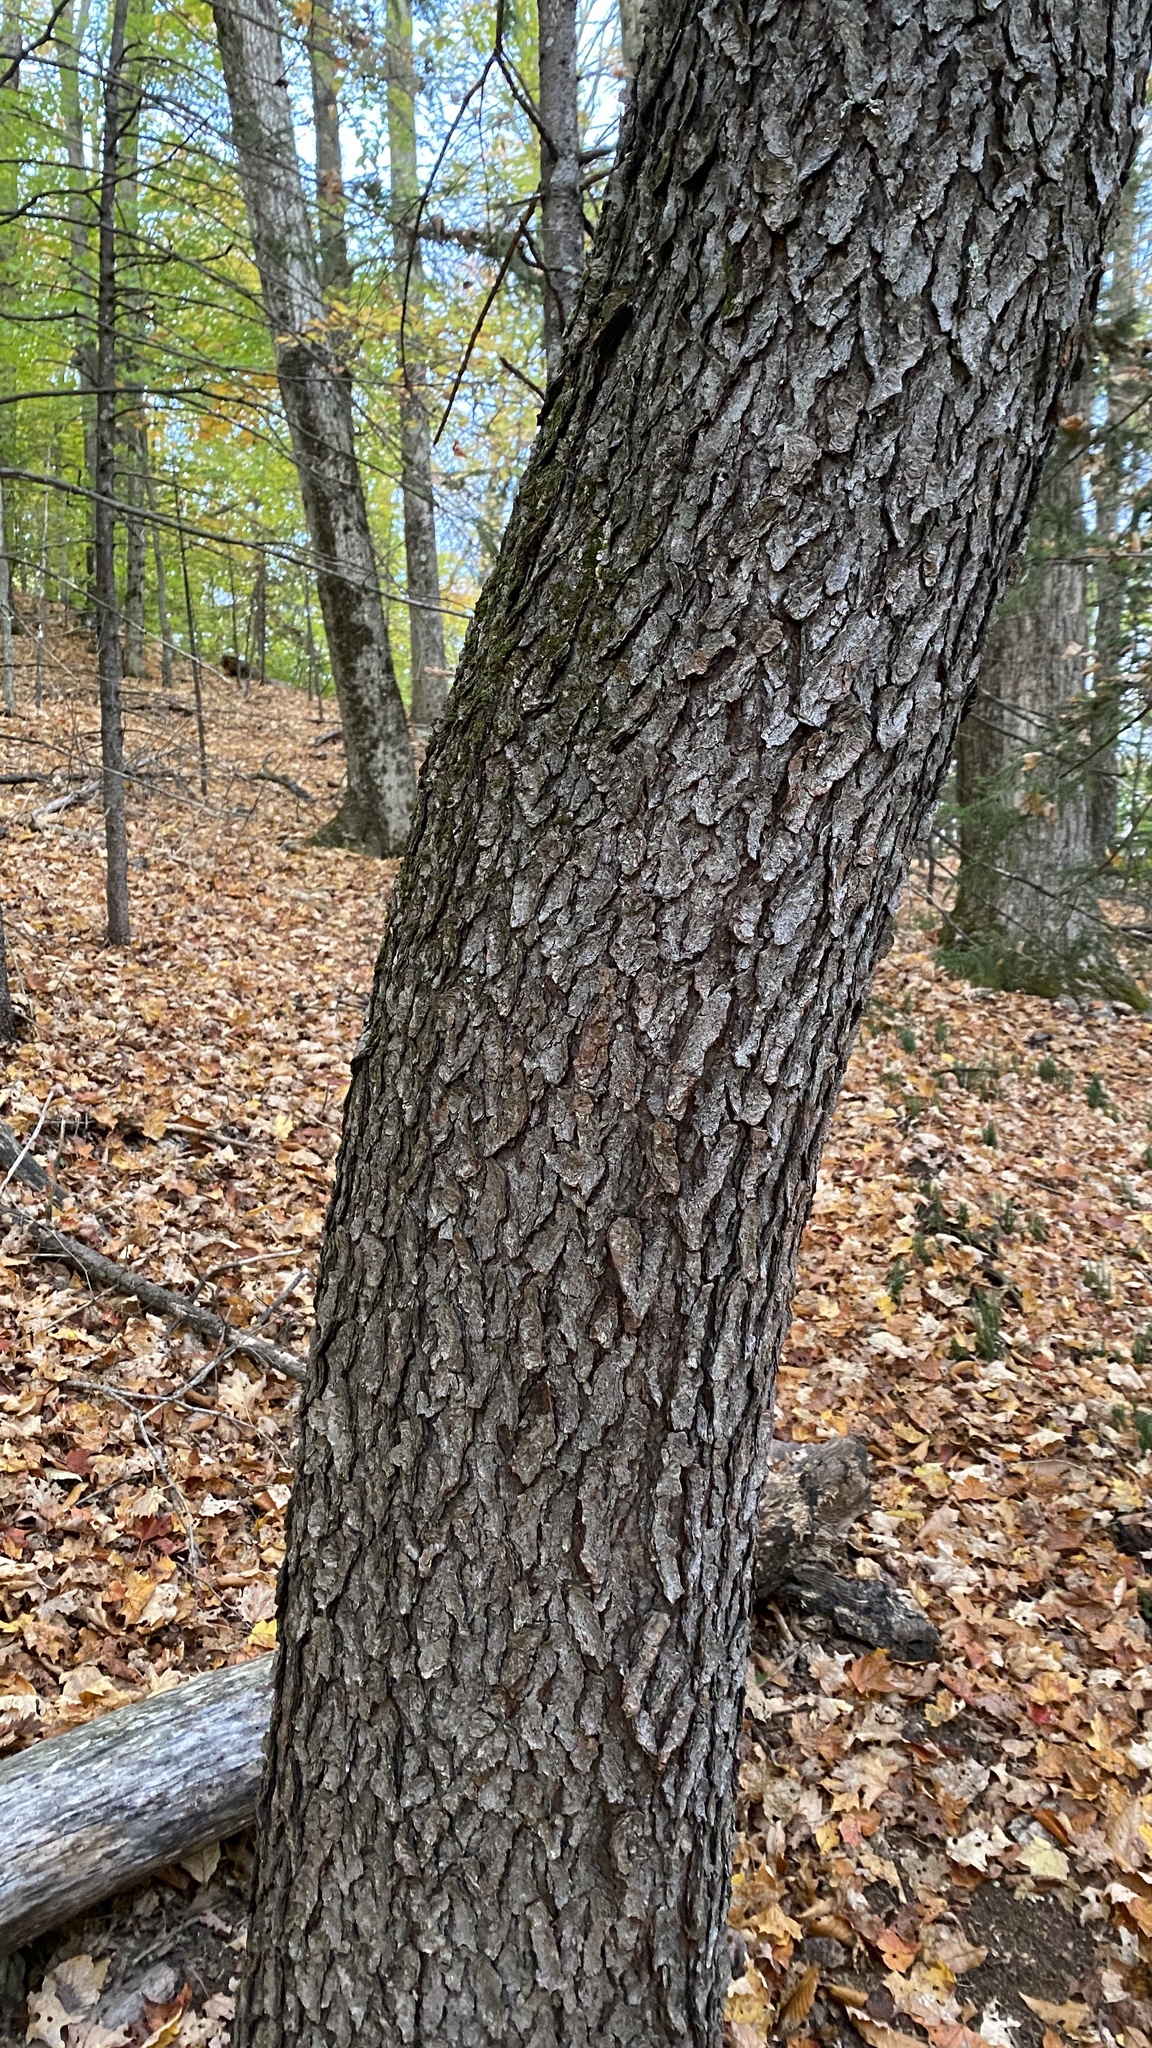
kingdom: Plantae
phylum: Tracheophyta
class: Magnoliopsida
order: Rosales
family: Rosaceae
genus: Prunus
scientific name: Prunus serotina
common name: Black cherry
